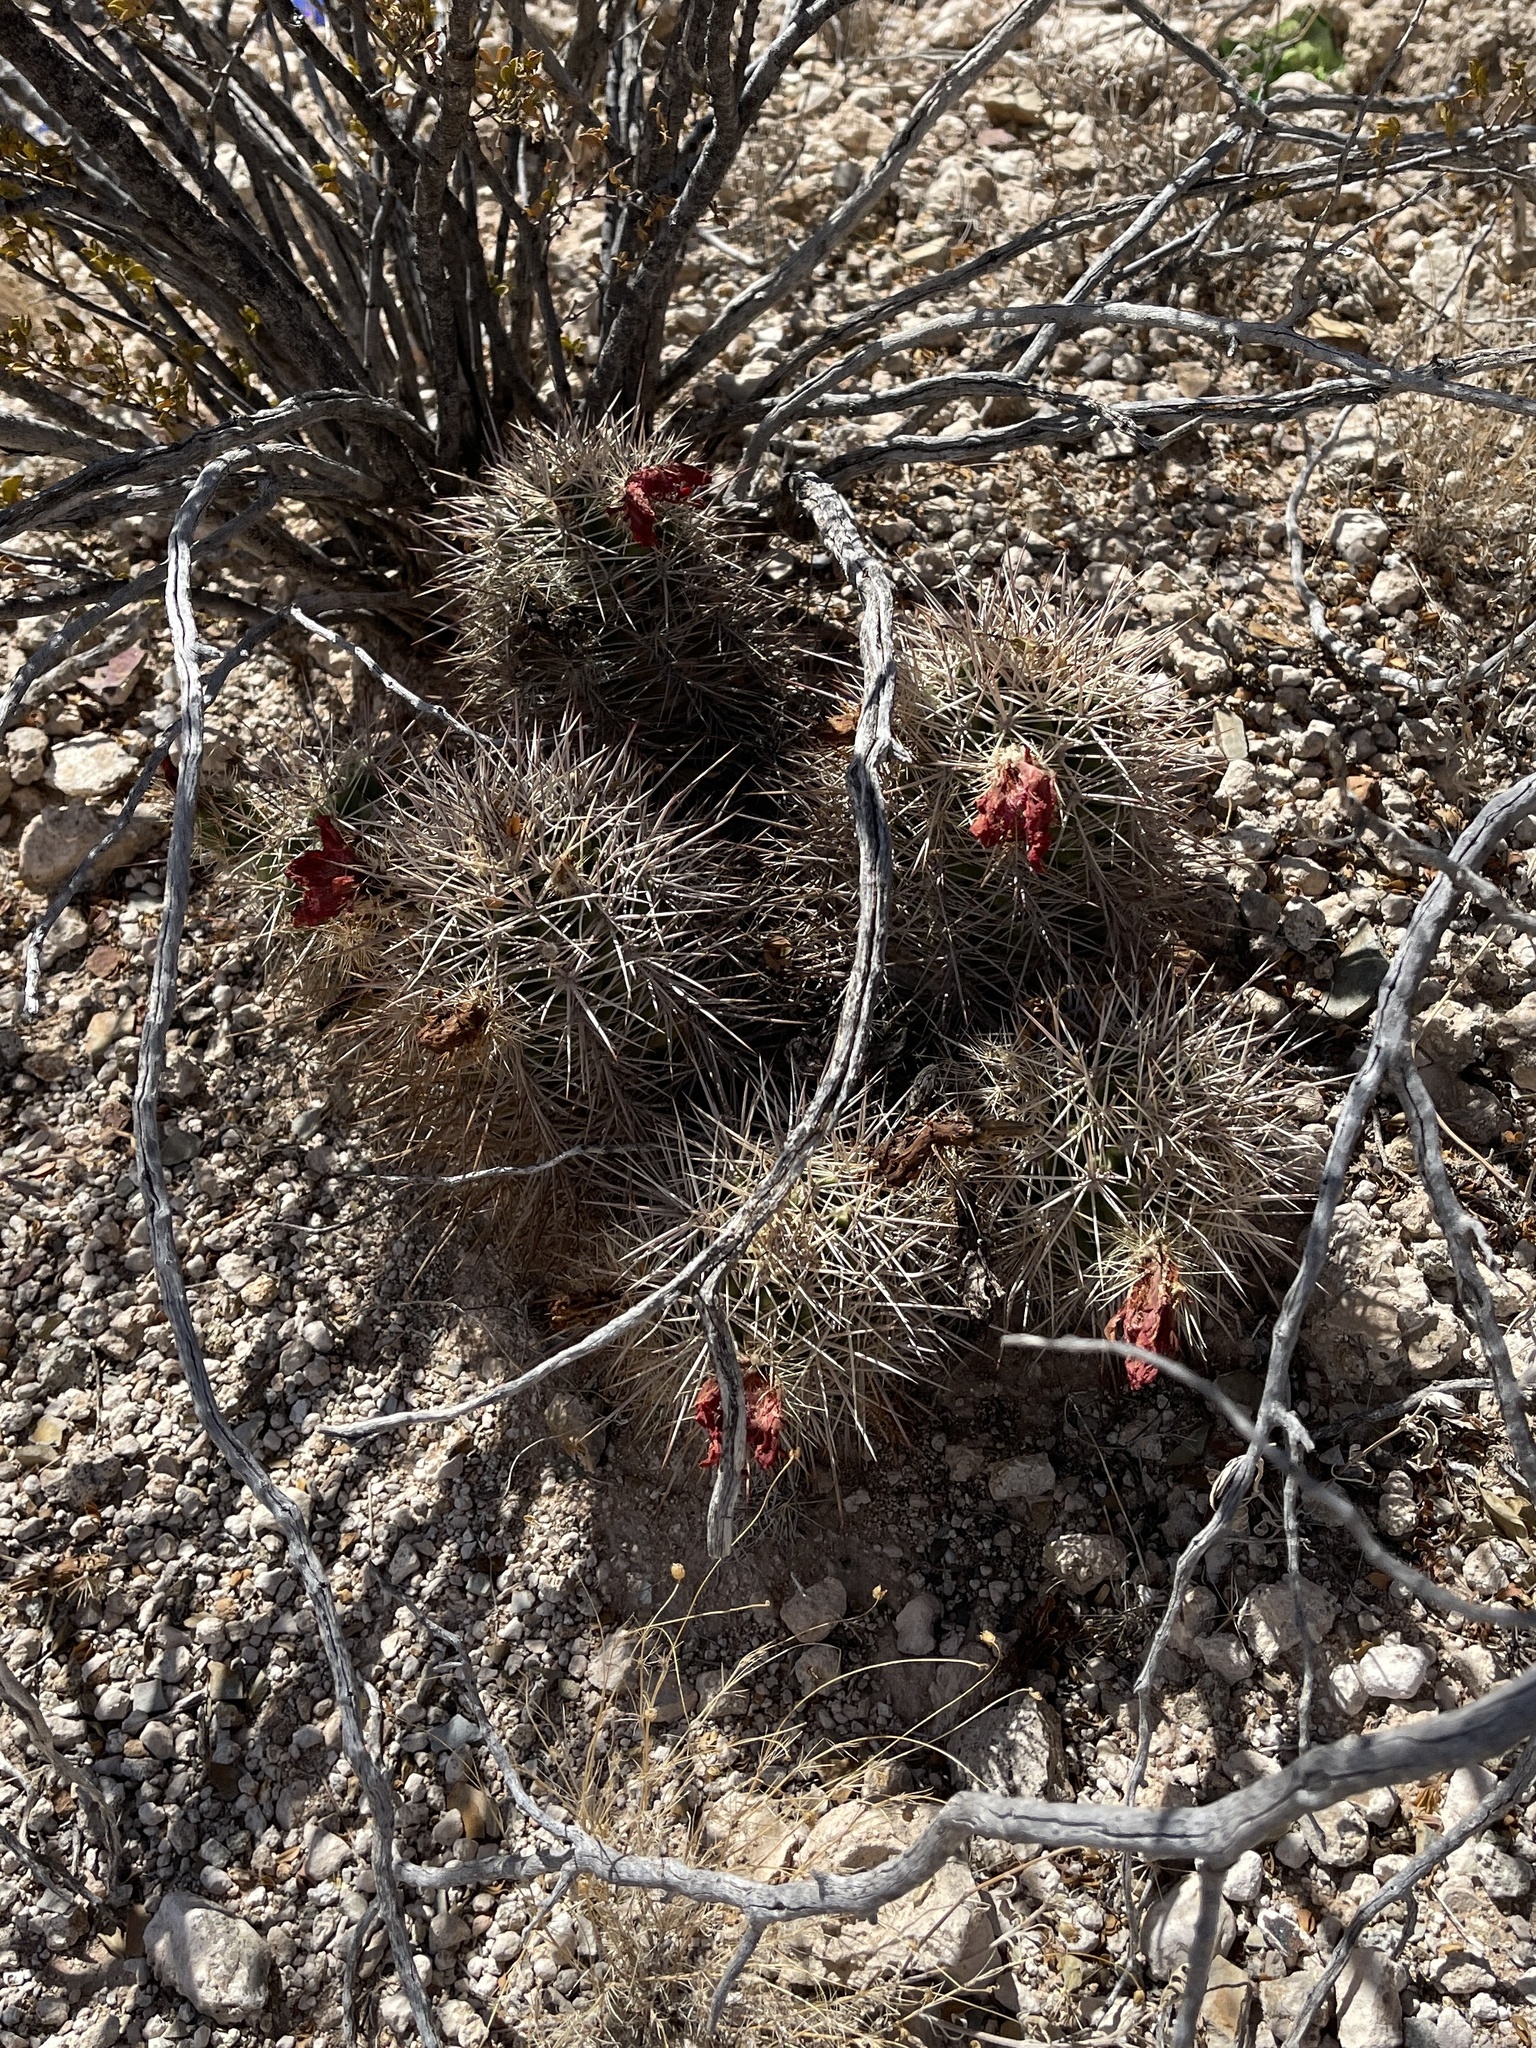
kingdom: Plantae
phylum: Tracheophyta
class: Magnoliopsida
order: Caryophyllales
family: Cactaceae
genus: Echinocereus
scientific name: Echinocereus coccineus
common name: Scarlet hedgehog cactus
